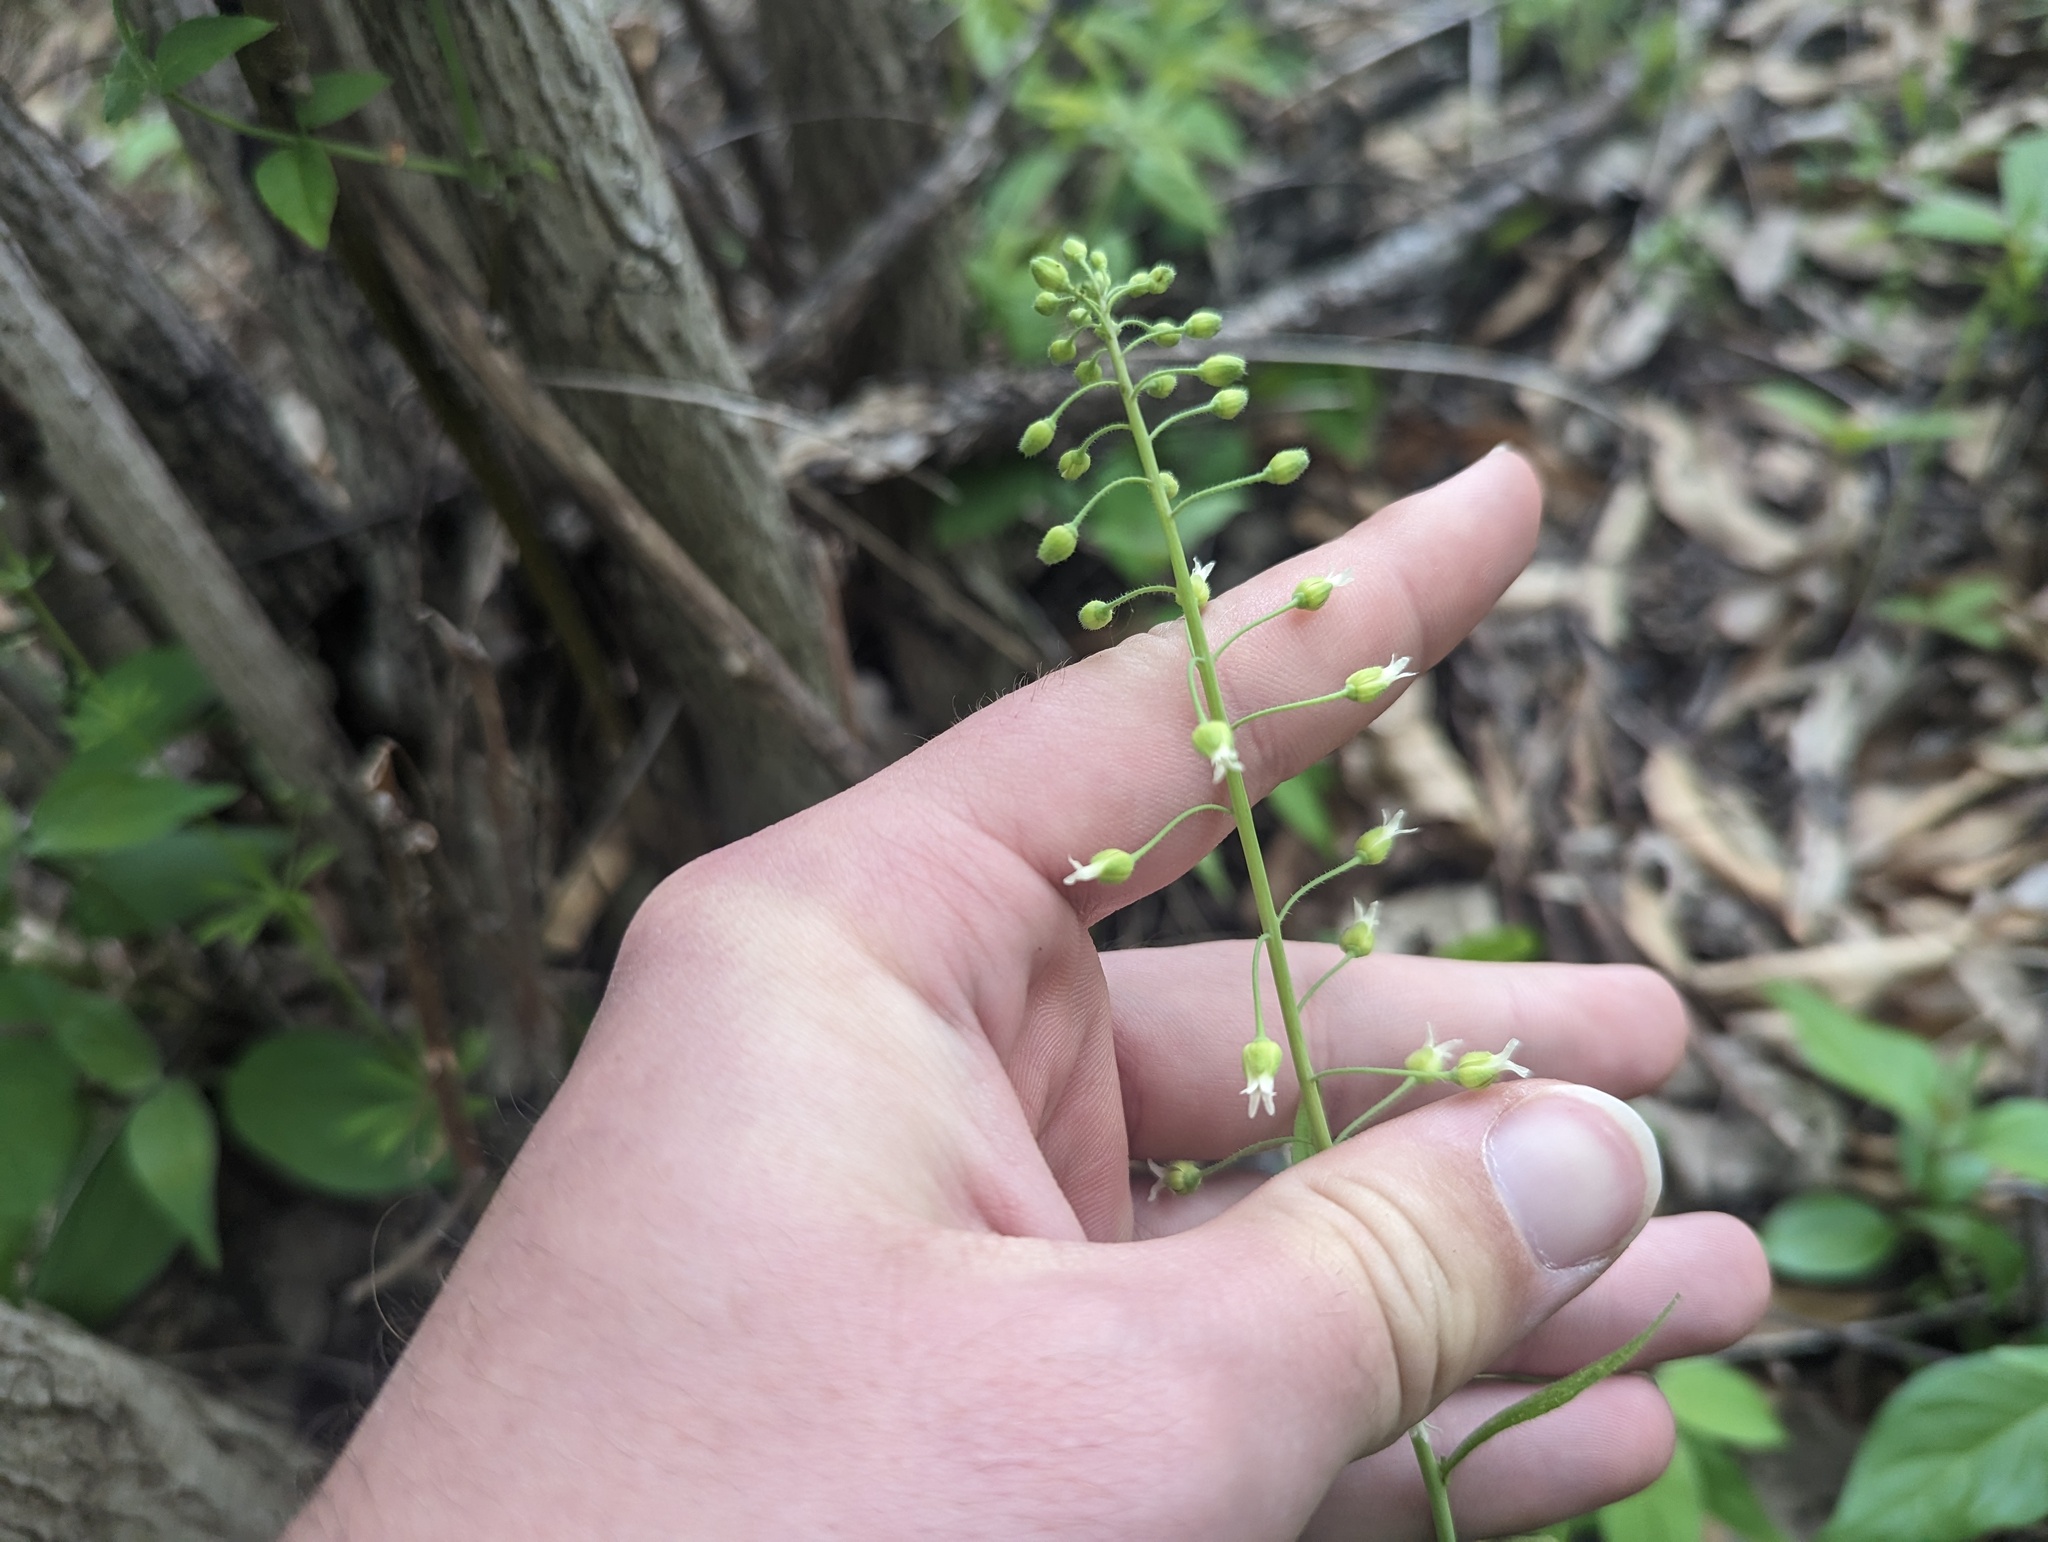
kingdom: Plantae
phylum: Tracheophyta
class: Magnoliopsida
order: Brassicales
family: Brassicaceae
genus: Borodinia
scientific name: Borodinia canadensis
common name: Sicklepod
